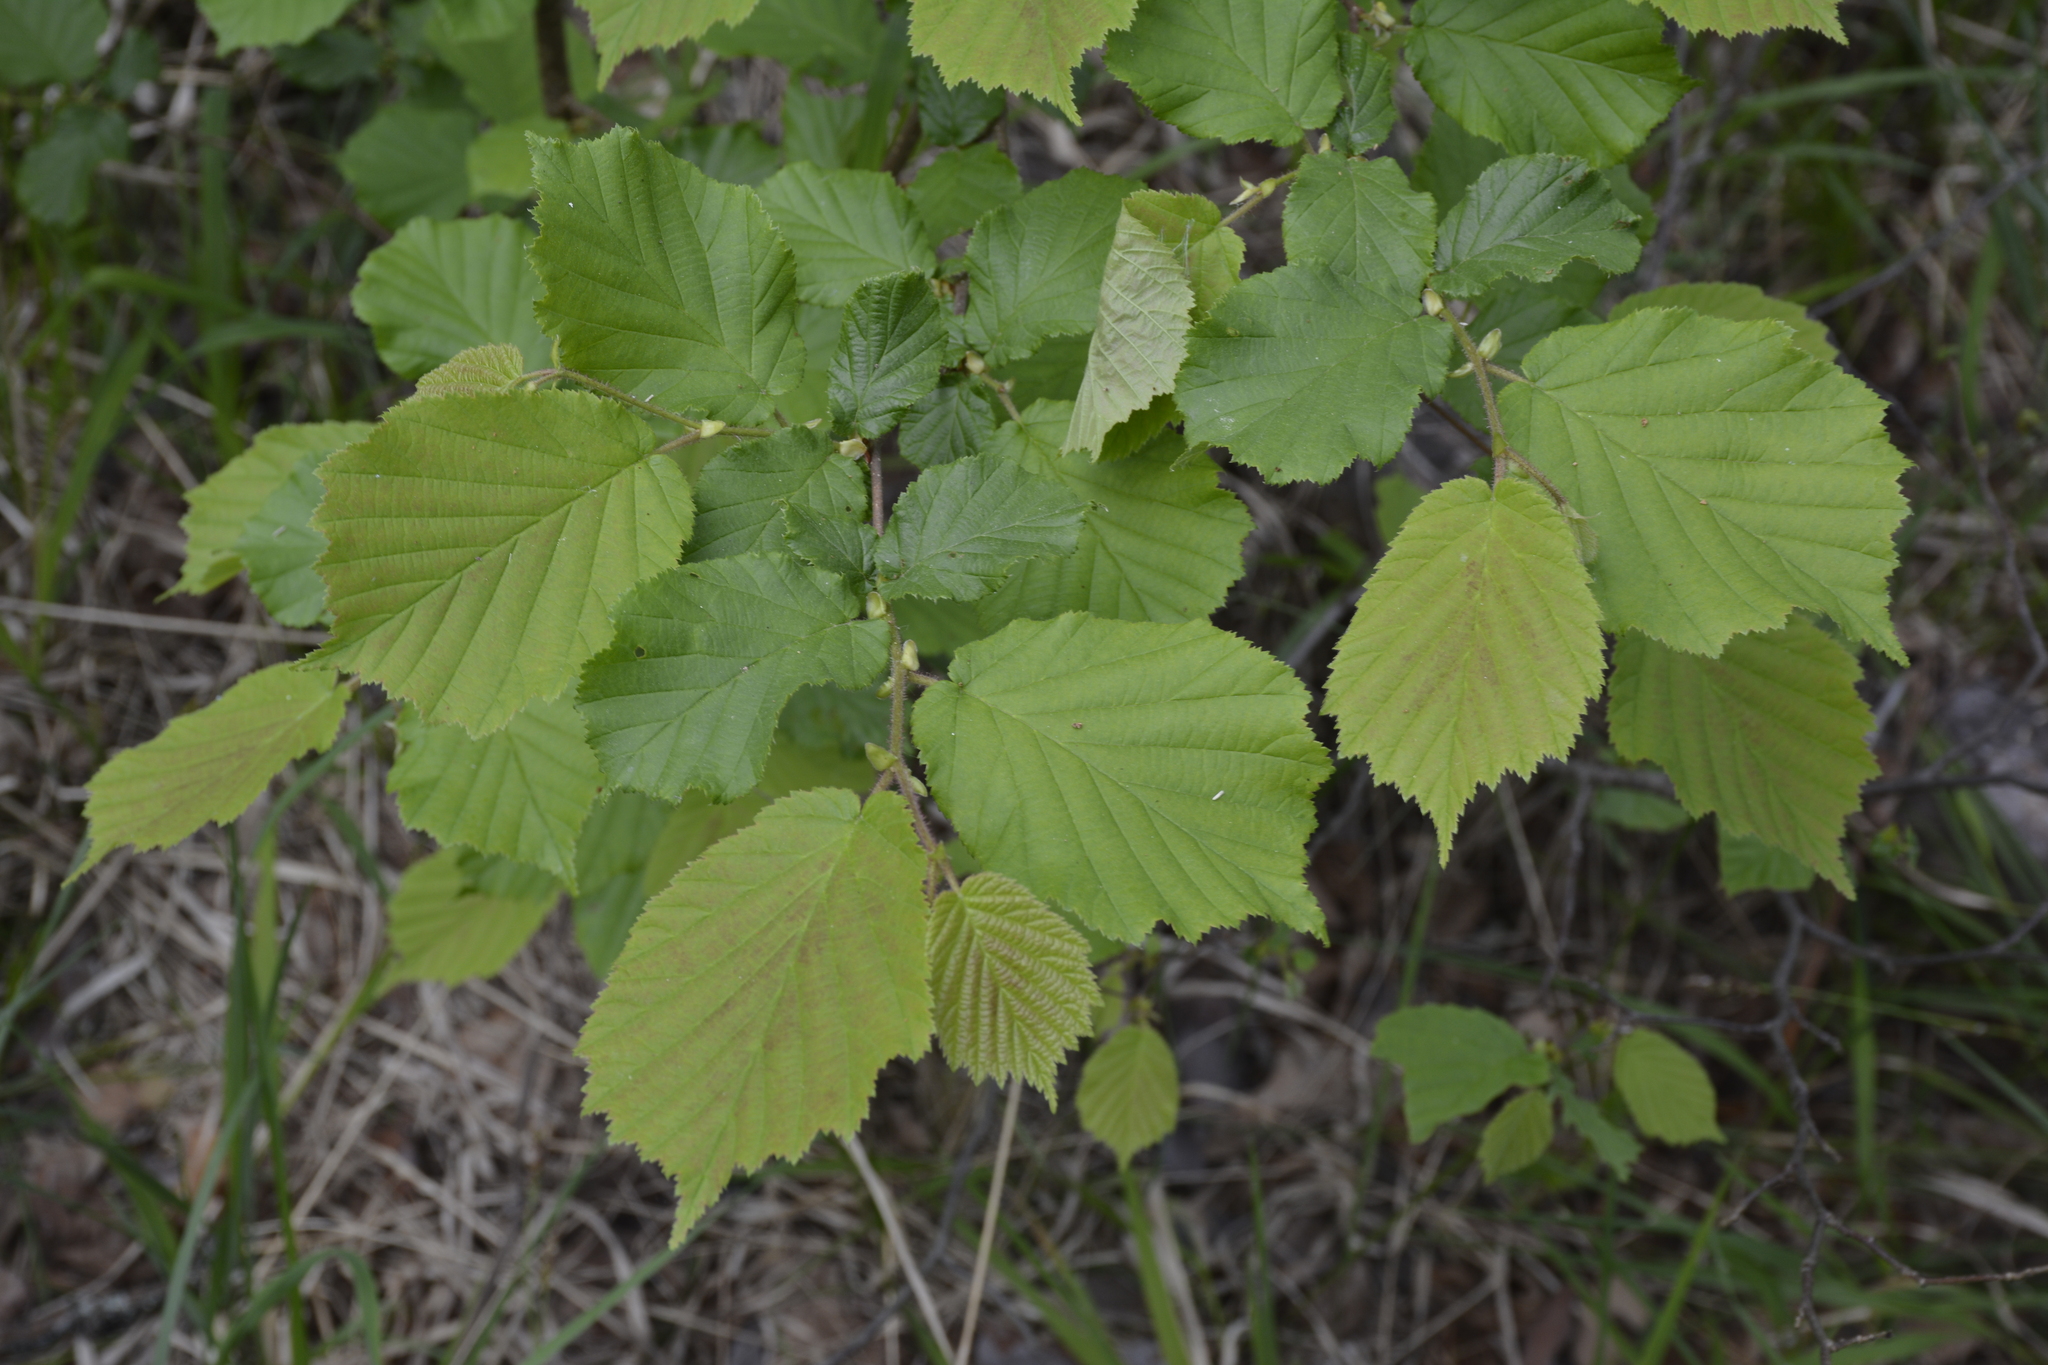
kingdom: Plantae
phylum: Tracheophyta
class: Magnoliopsida
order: Fagales
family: Betulaceae
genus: Corylus
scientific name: Corylus avellana
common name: European hazel
